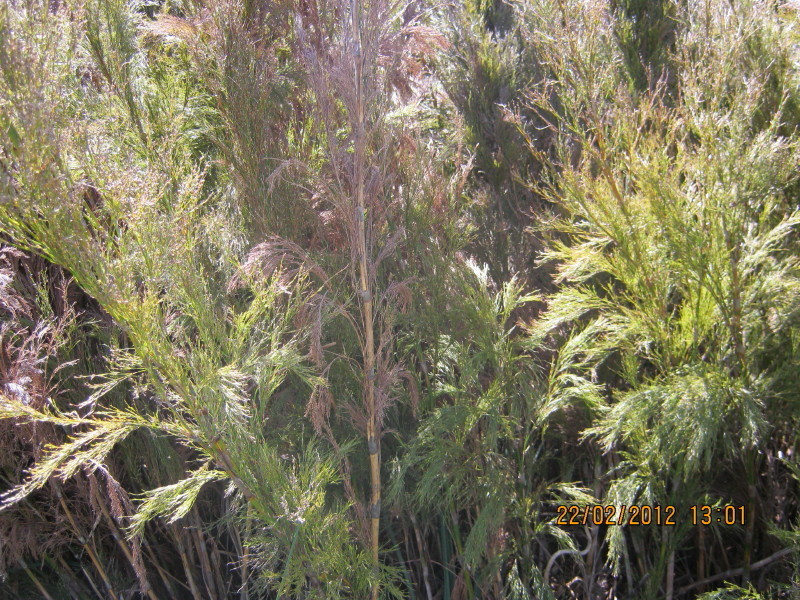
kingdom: Plantae
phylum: Tracheophyta
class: Liliopsida
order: Poales
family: Restionaceae
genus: Restio
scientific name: Restio paniculatus
